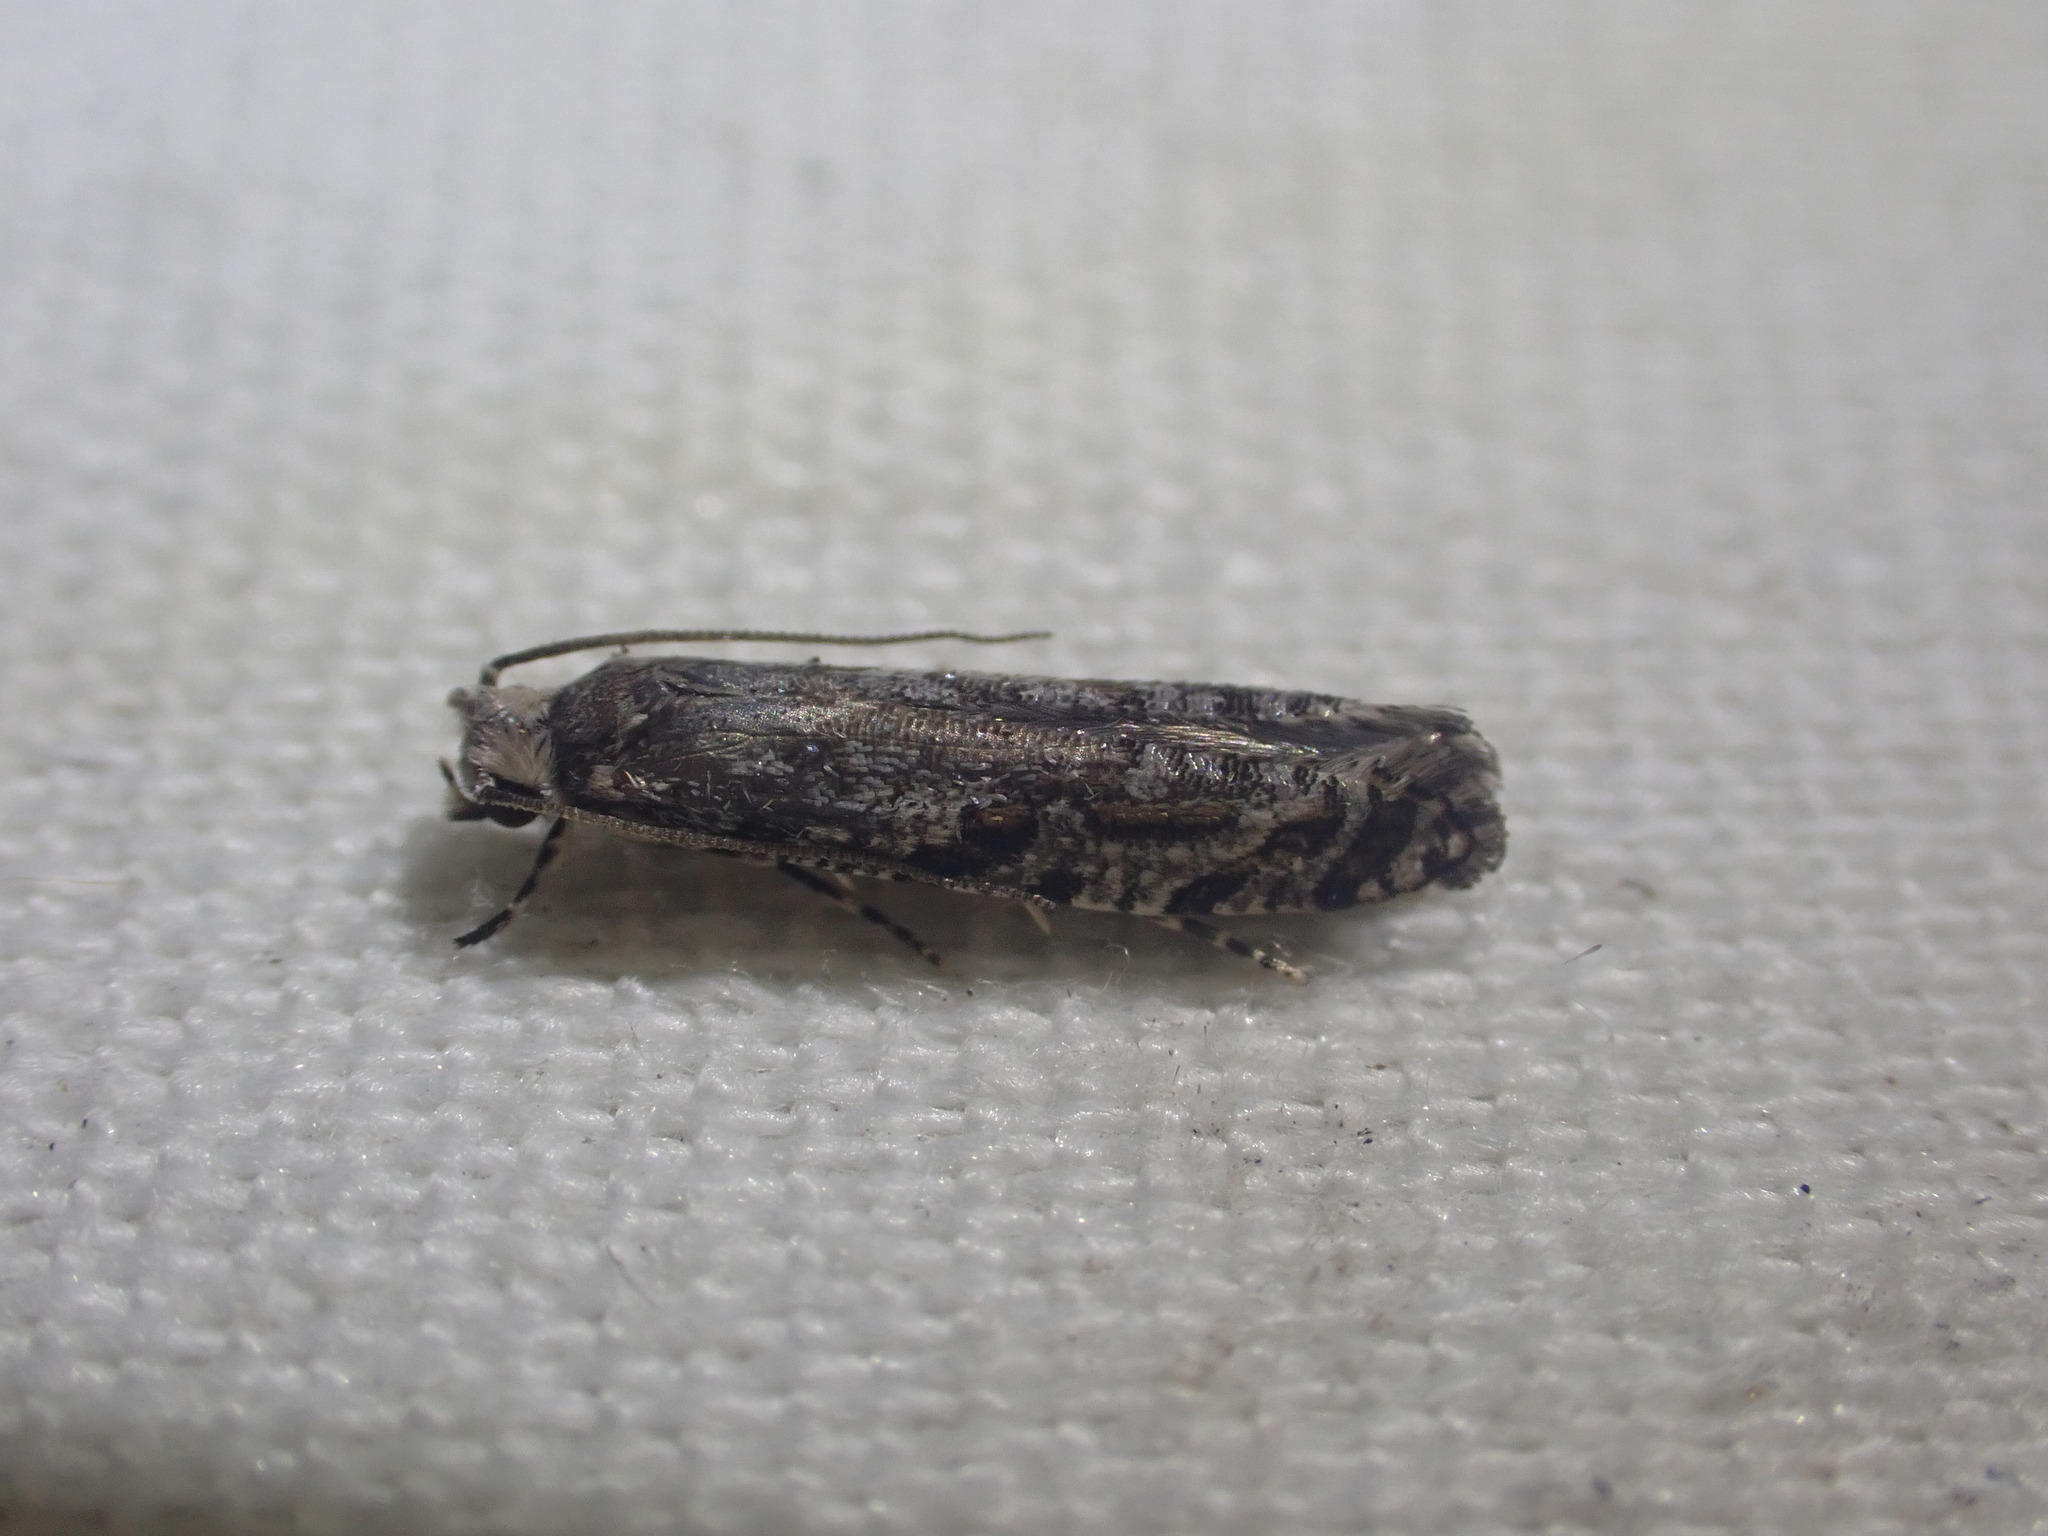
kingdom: Animalia
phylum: Arthropoda
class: Insecta
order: Lepidoptera
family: Tineidae
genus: Archyala
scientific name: Archyala paraglypta
